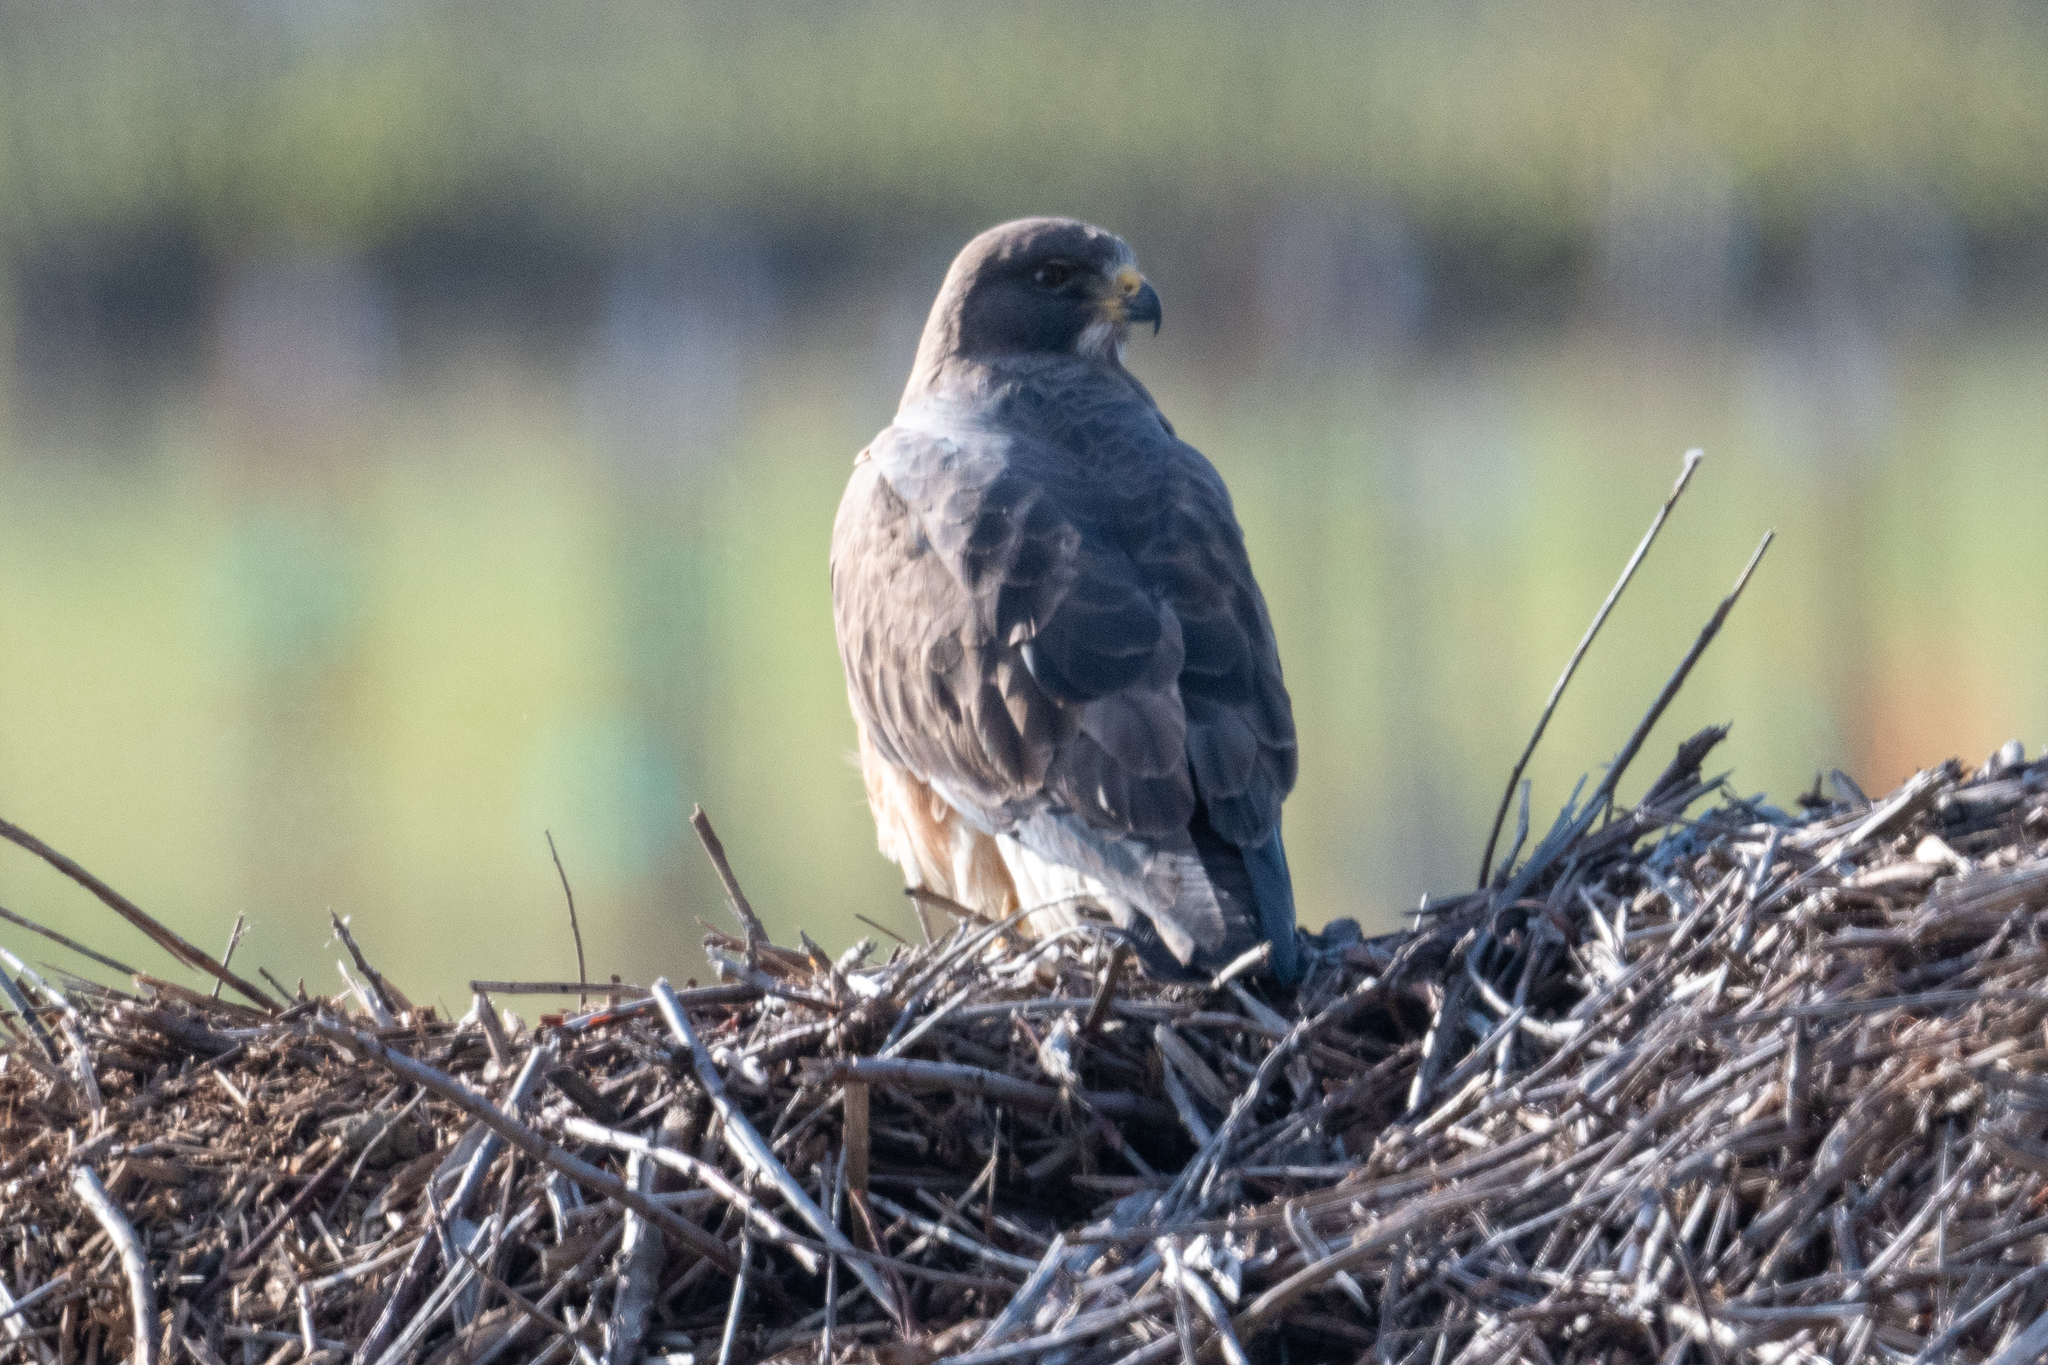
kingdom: Animalia
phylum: Chordata
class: Aves
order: Accipitriformes
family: Accipitridae
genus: Buteo
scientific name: Buteo swainsoni
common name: Swainson's hawk
